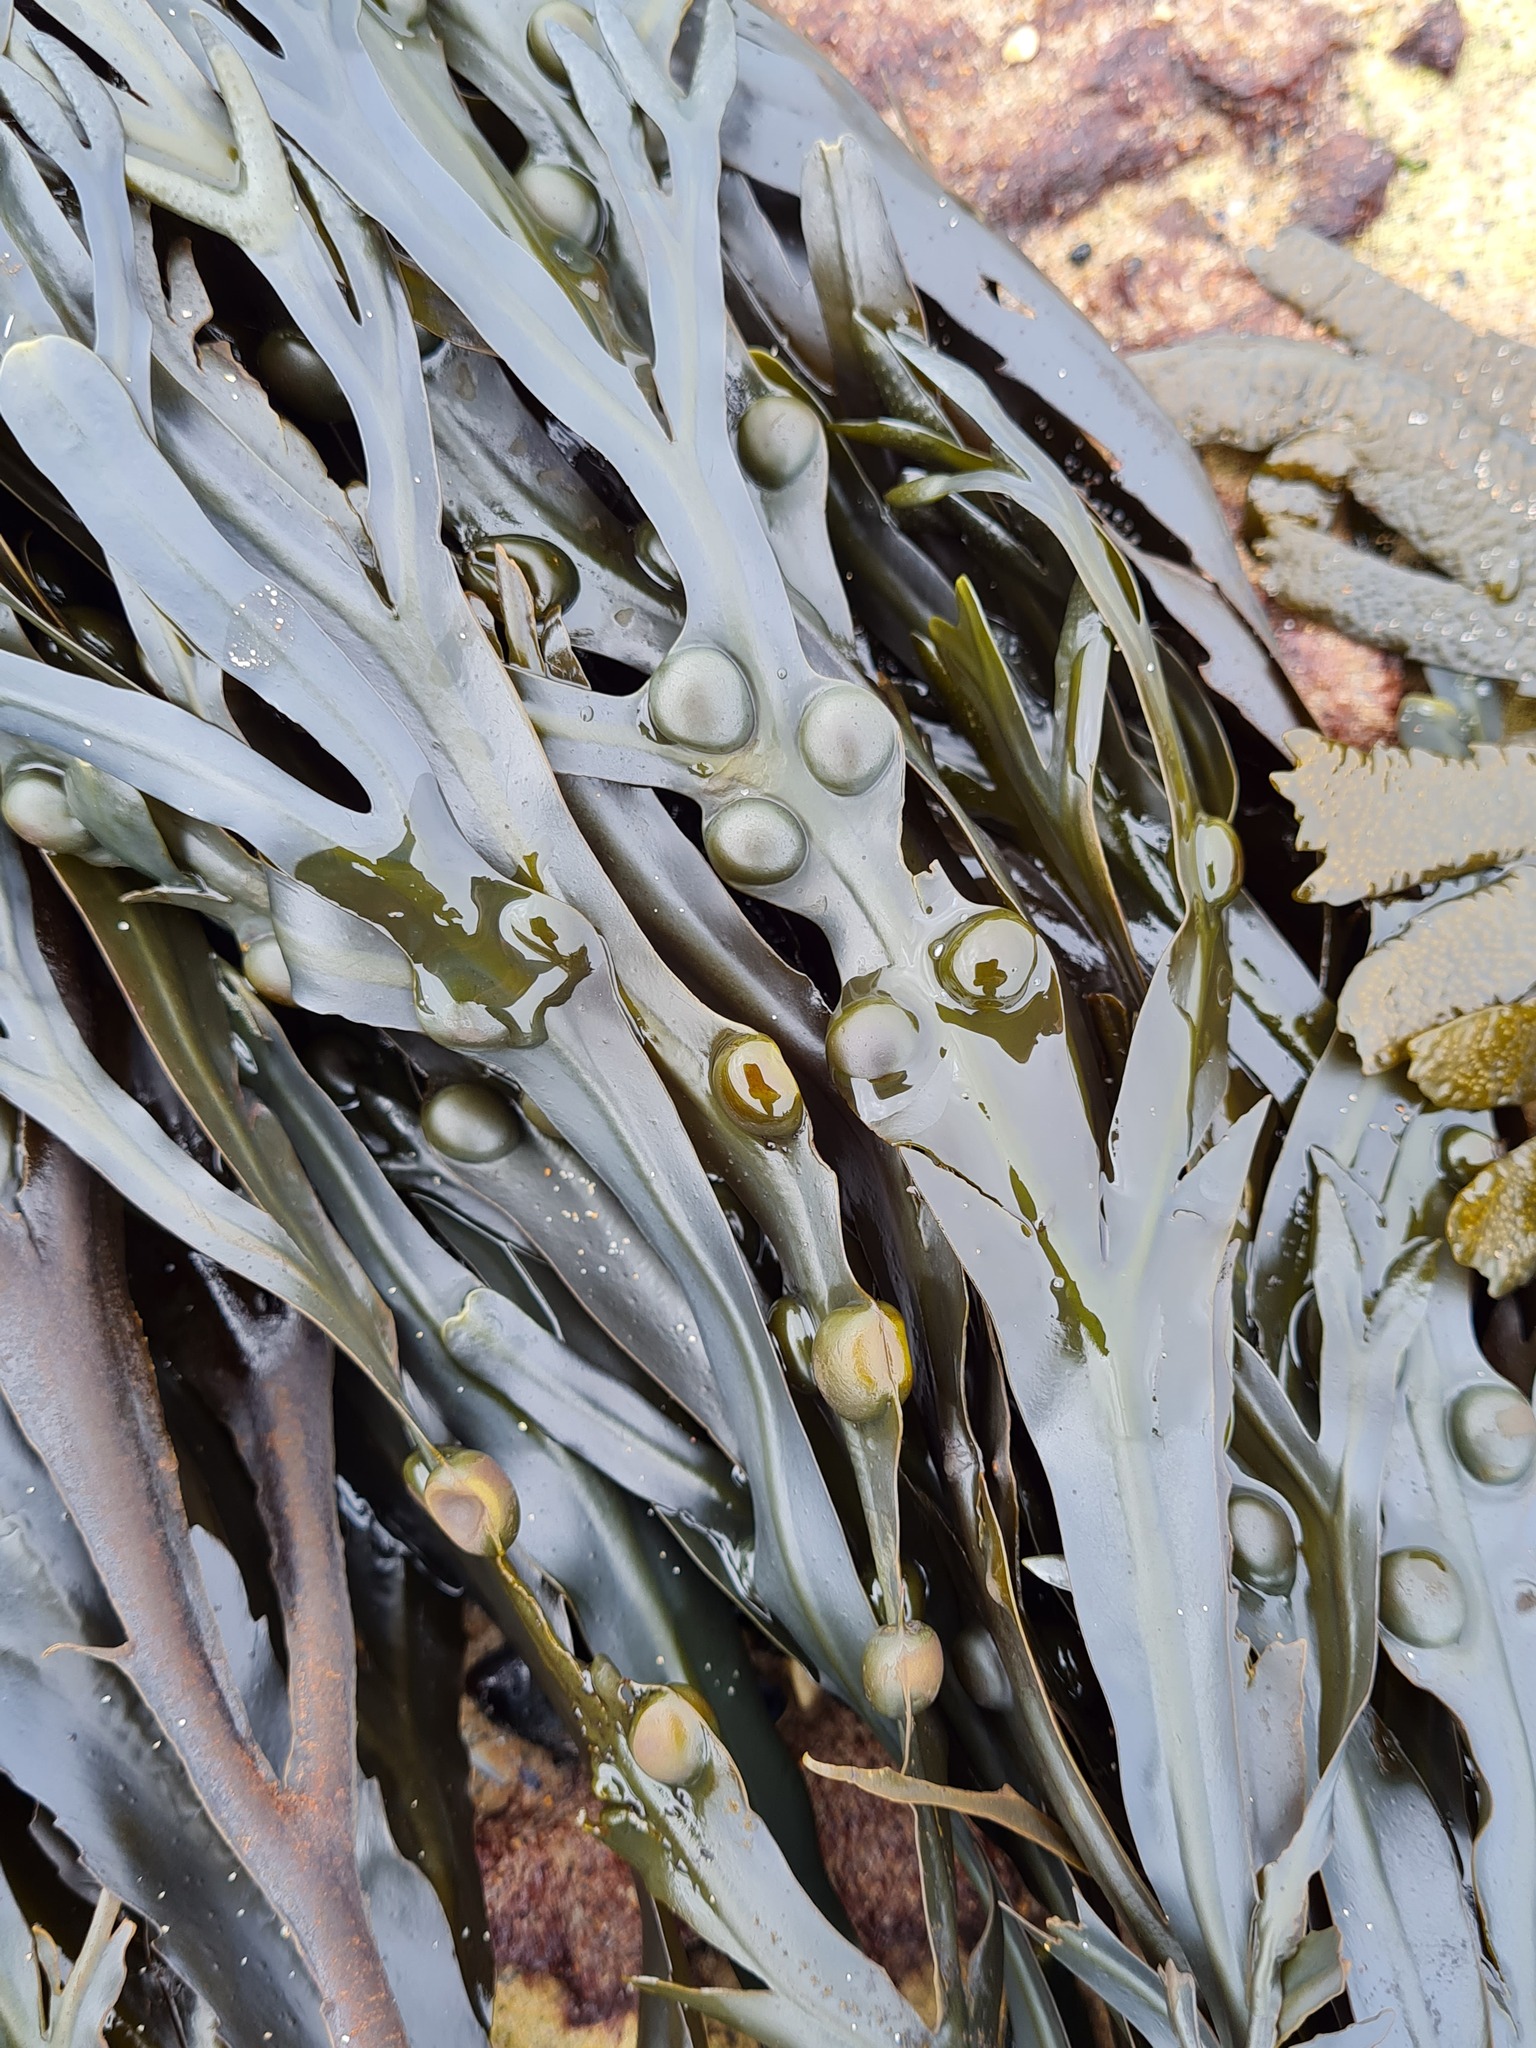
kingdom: Chromista
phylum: Ochrophyta
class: Phaeophyceae
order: Fucales
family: Fucaceae
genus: Fucus
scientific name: Fucus vesiculosus
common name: Bladder wrack
